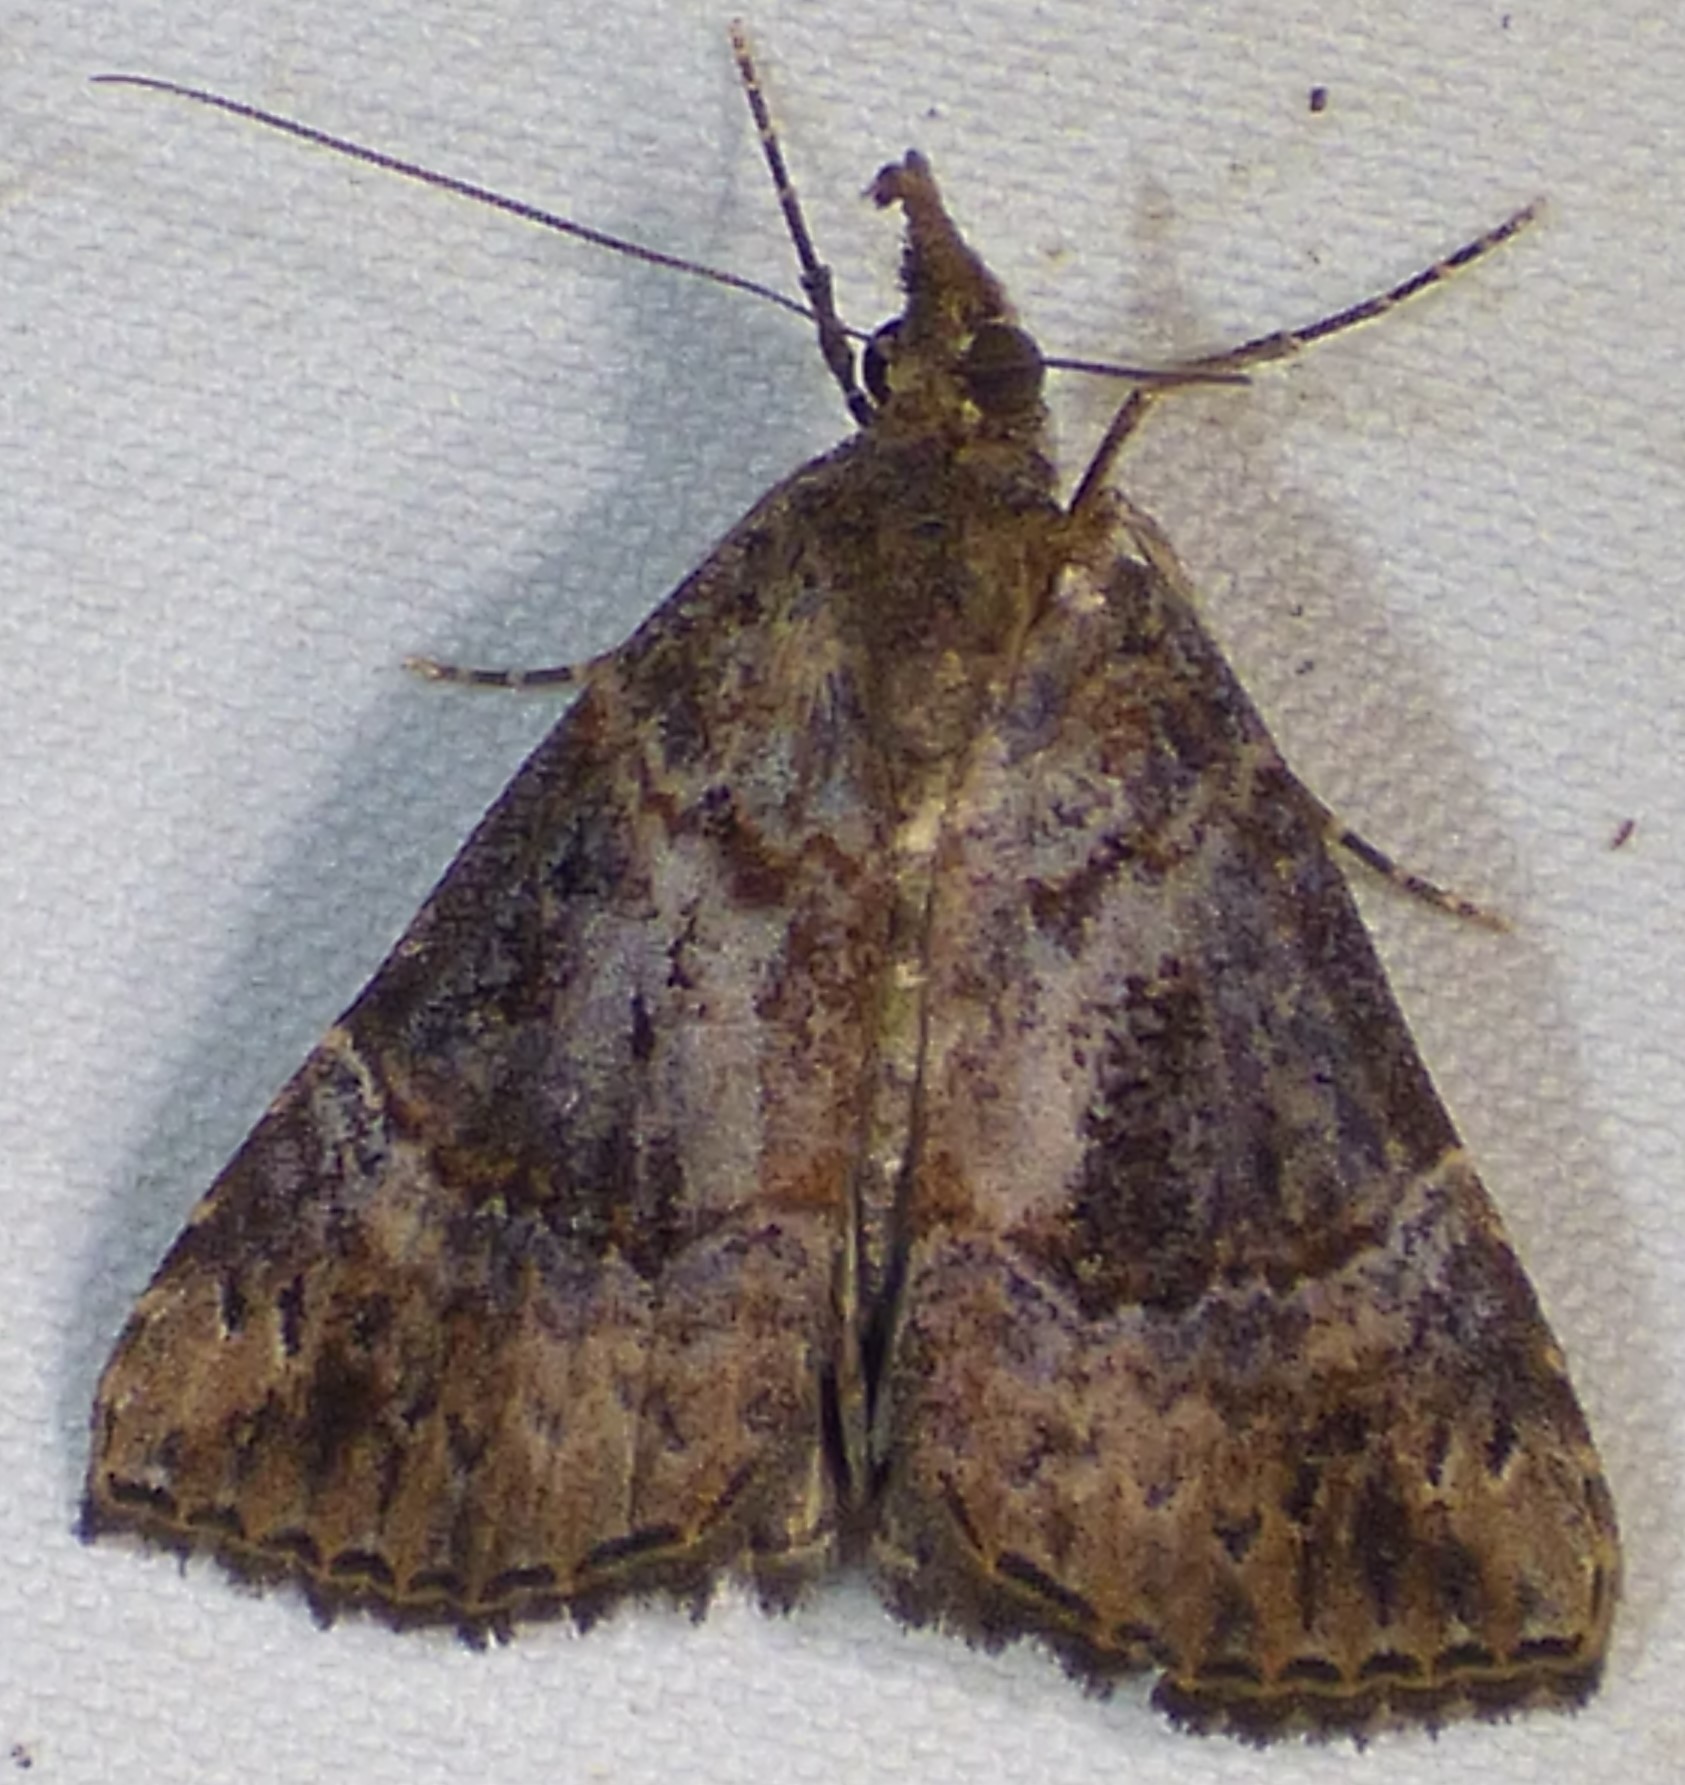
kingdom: Animalia
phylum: Arthropoda
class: Insecta
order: Lepidoptera
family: Erebidae
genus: Hypena
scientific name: Hypena scabra
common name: Green cloverworm
